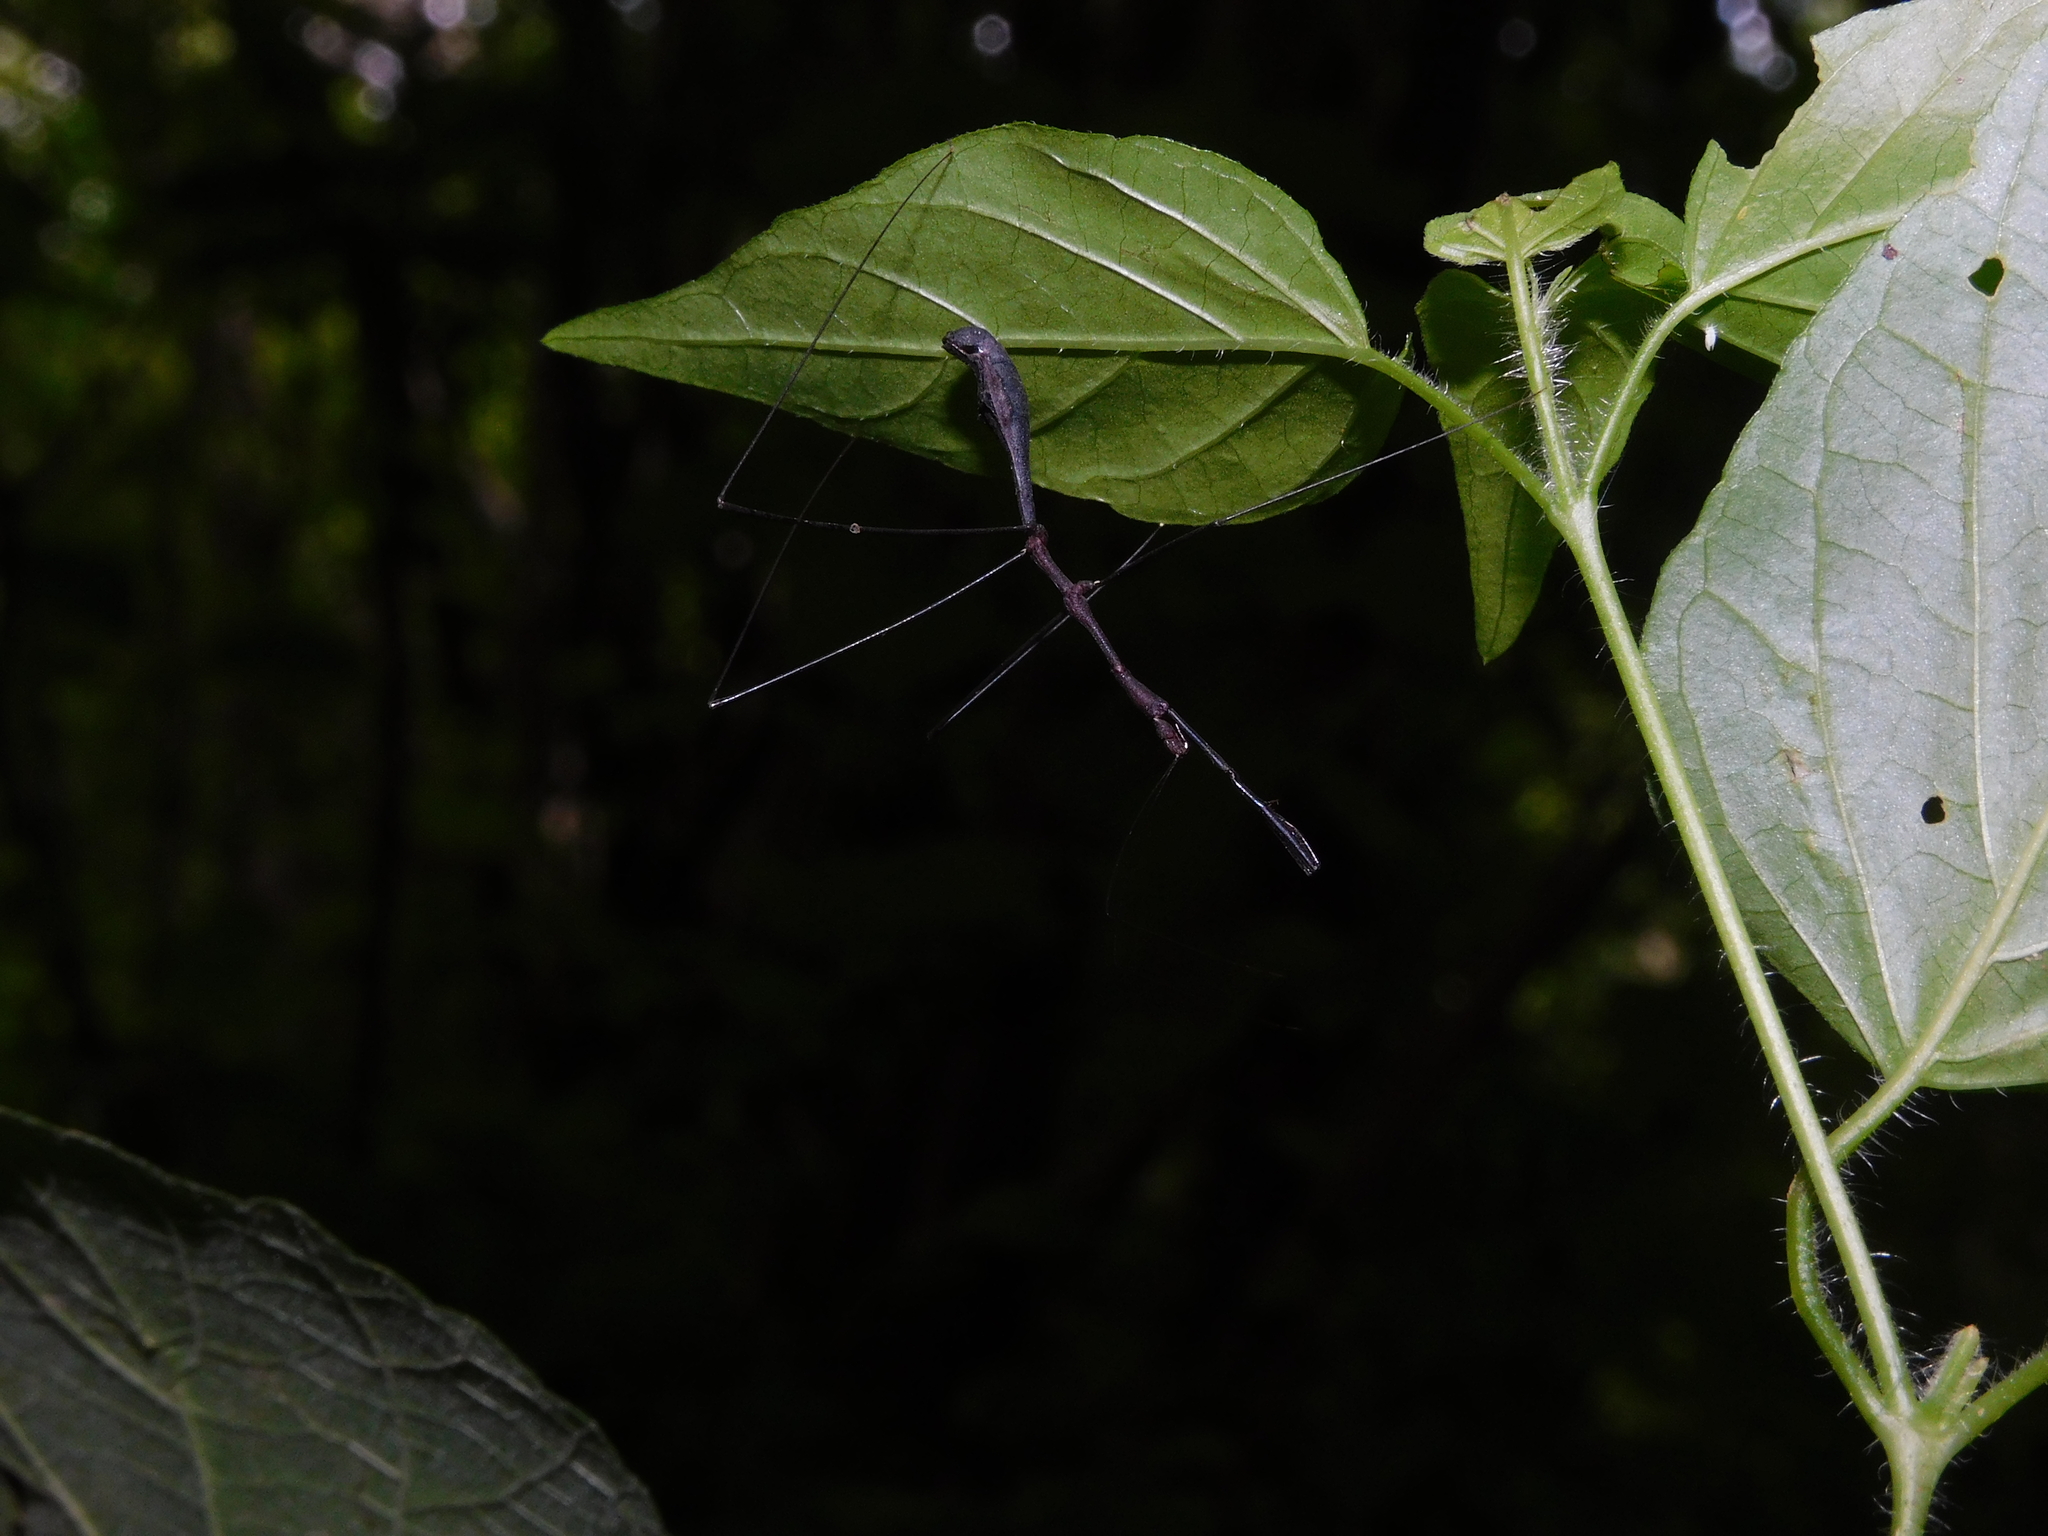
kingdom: Animalia
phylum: Arthropoda
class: Insecta
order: Hemiptera
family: Reduviidae
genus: Ghilianella
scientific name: Ghilianella colona
